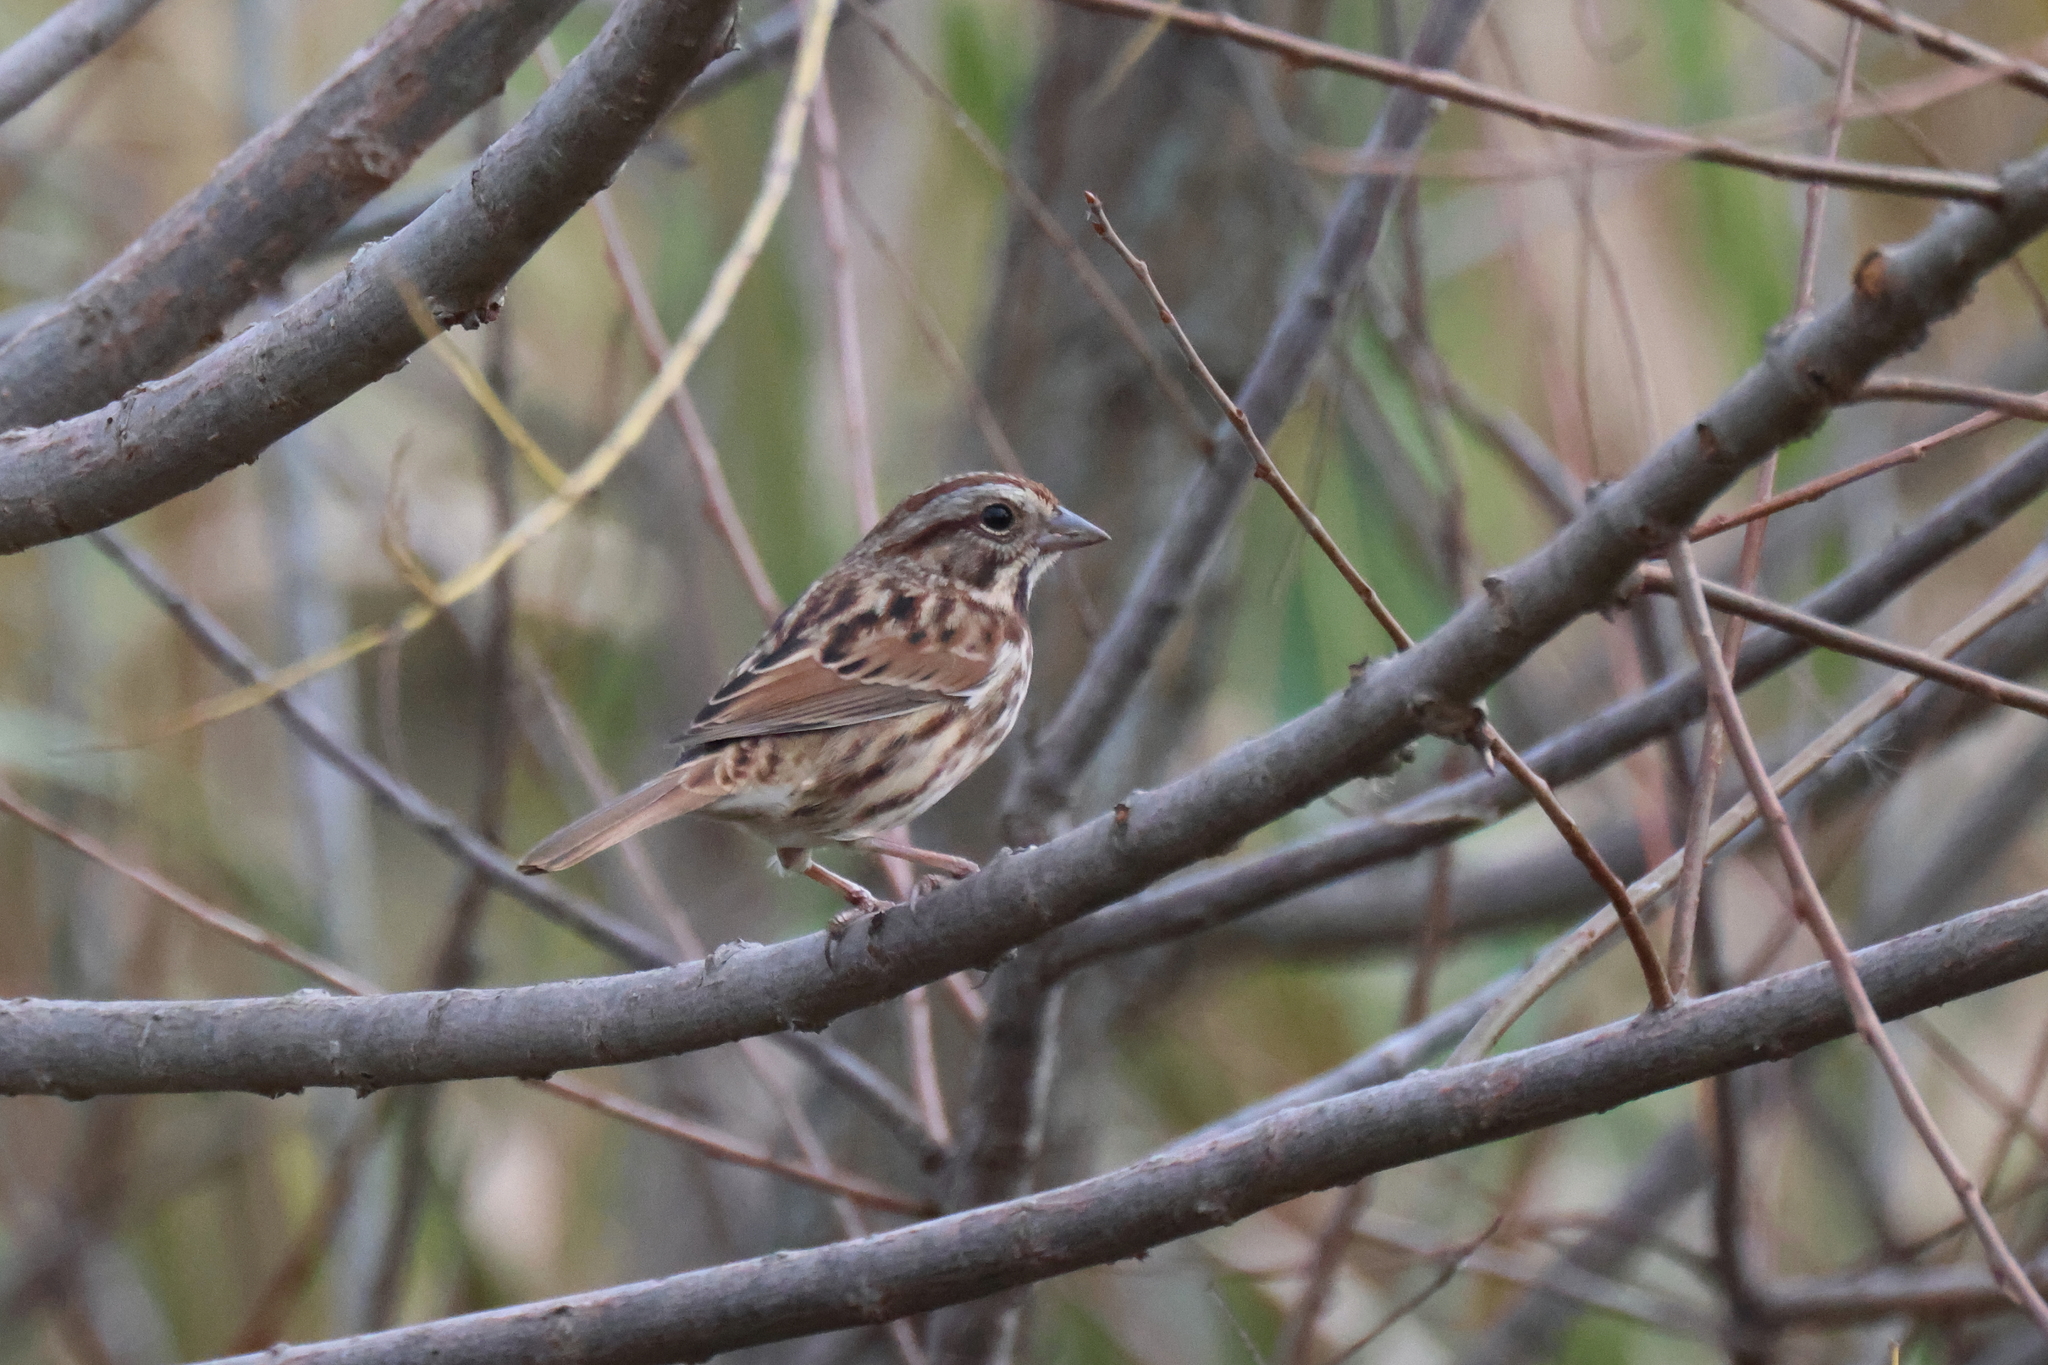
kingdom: Animalia
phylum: Chordata
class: Aves
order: Passeriformes
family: Passerellidae
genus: Melospiza
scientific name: Melospiza melodia
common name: Song sparrow
